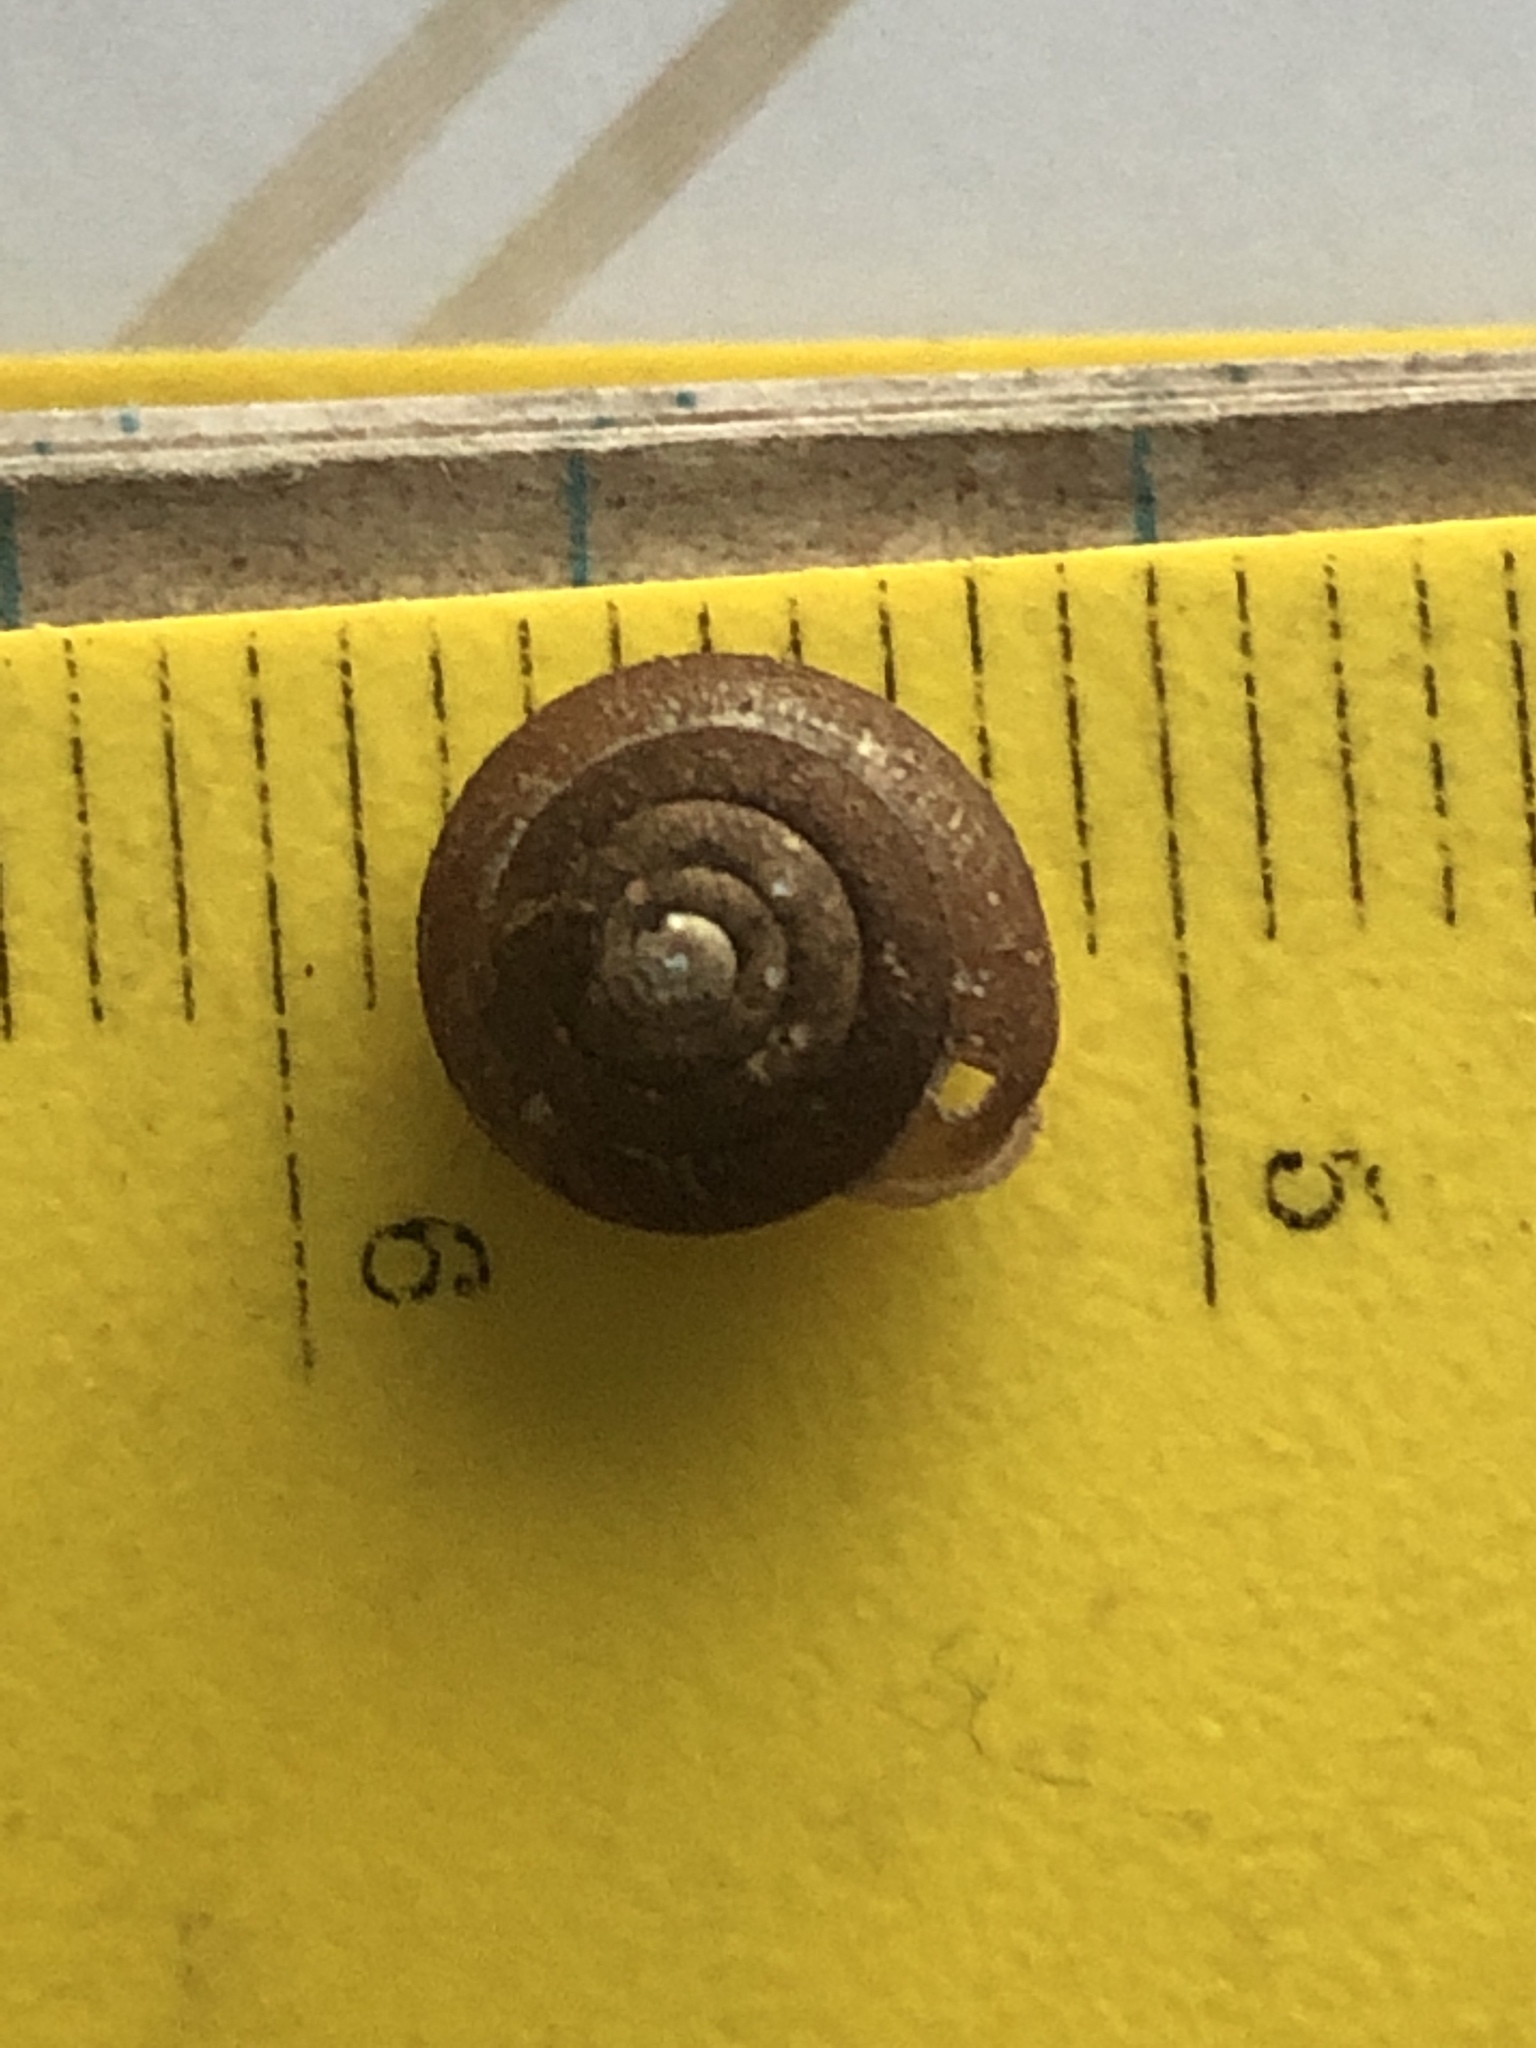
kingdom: Animalia
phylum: Mollusca
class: Gastropoda
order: Stylommatophora
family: Polygyridae
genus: Cryptomastix
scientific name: Cryptomastix germana
